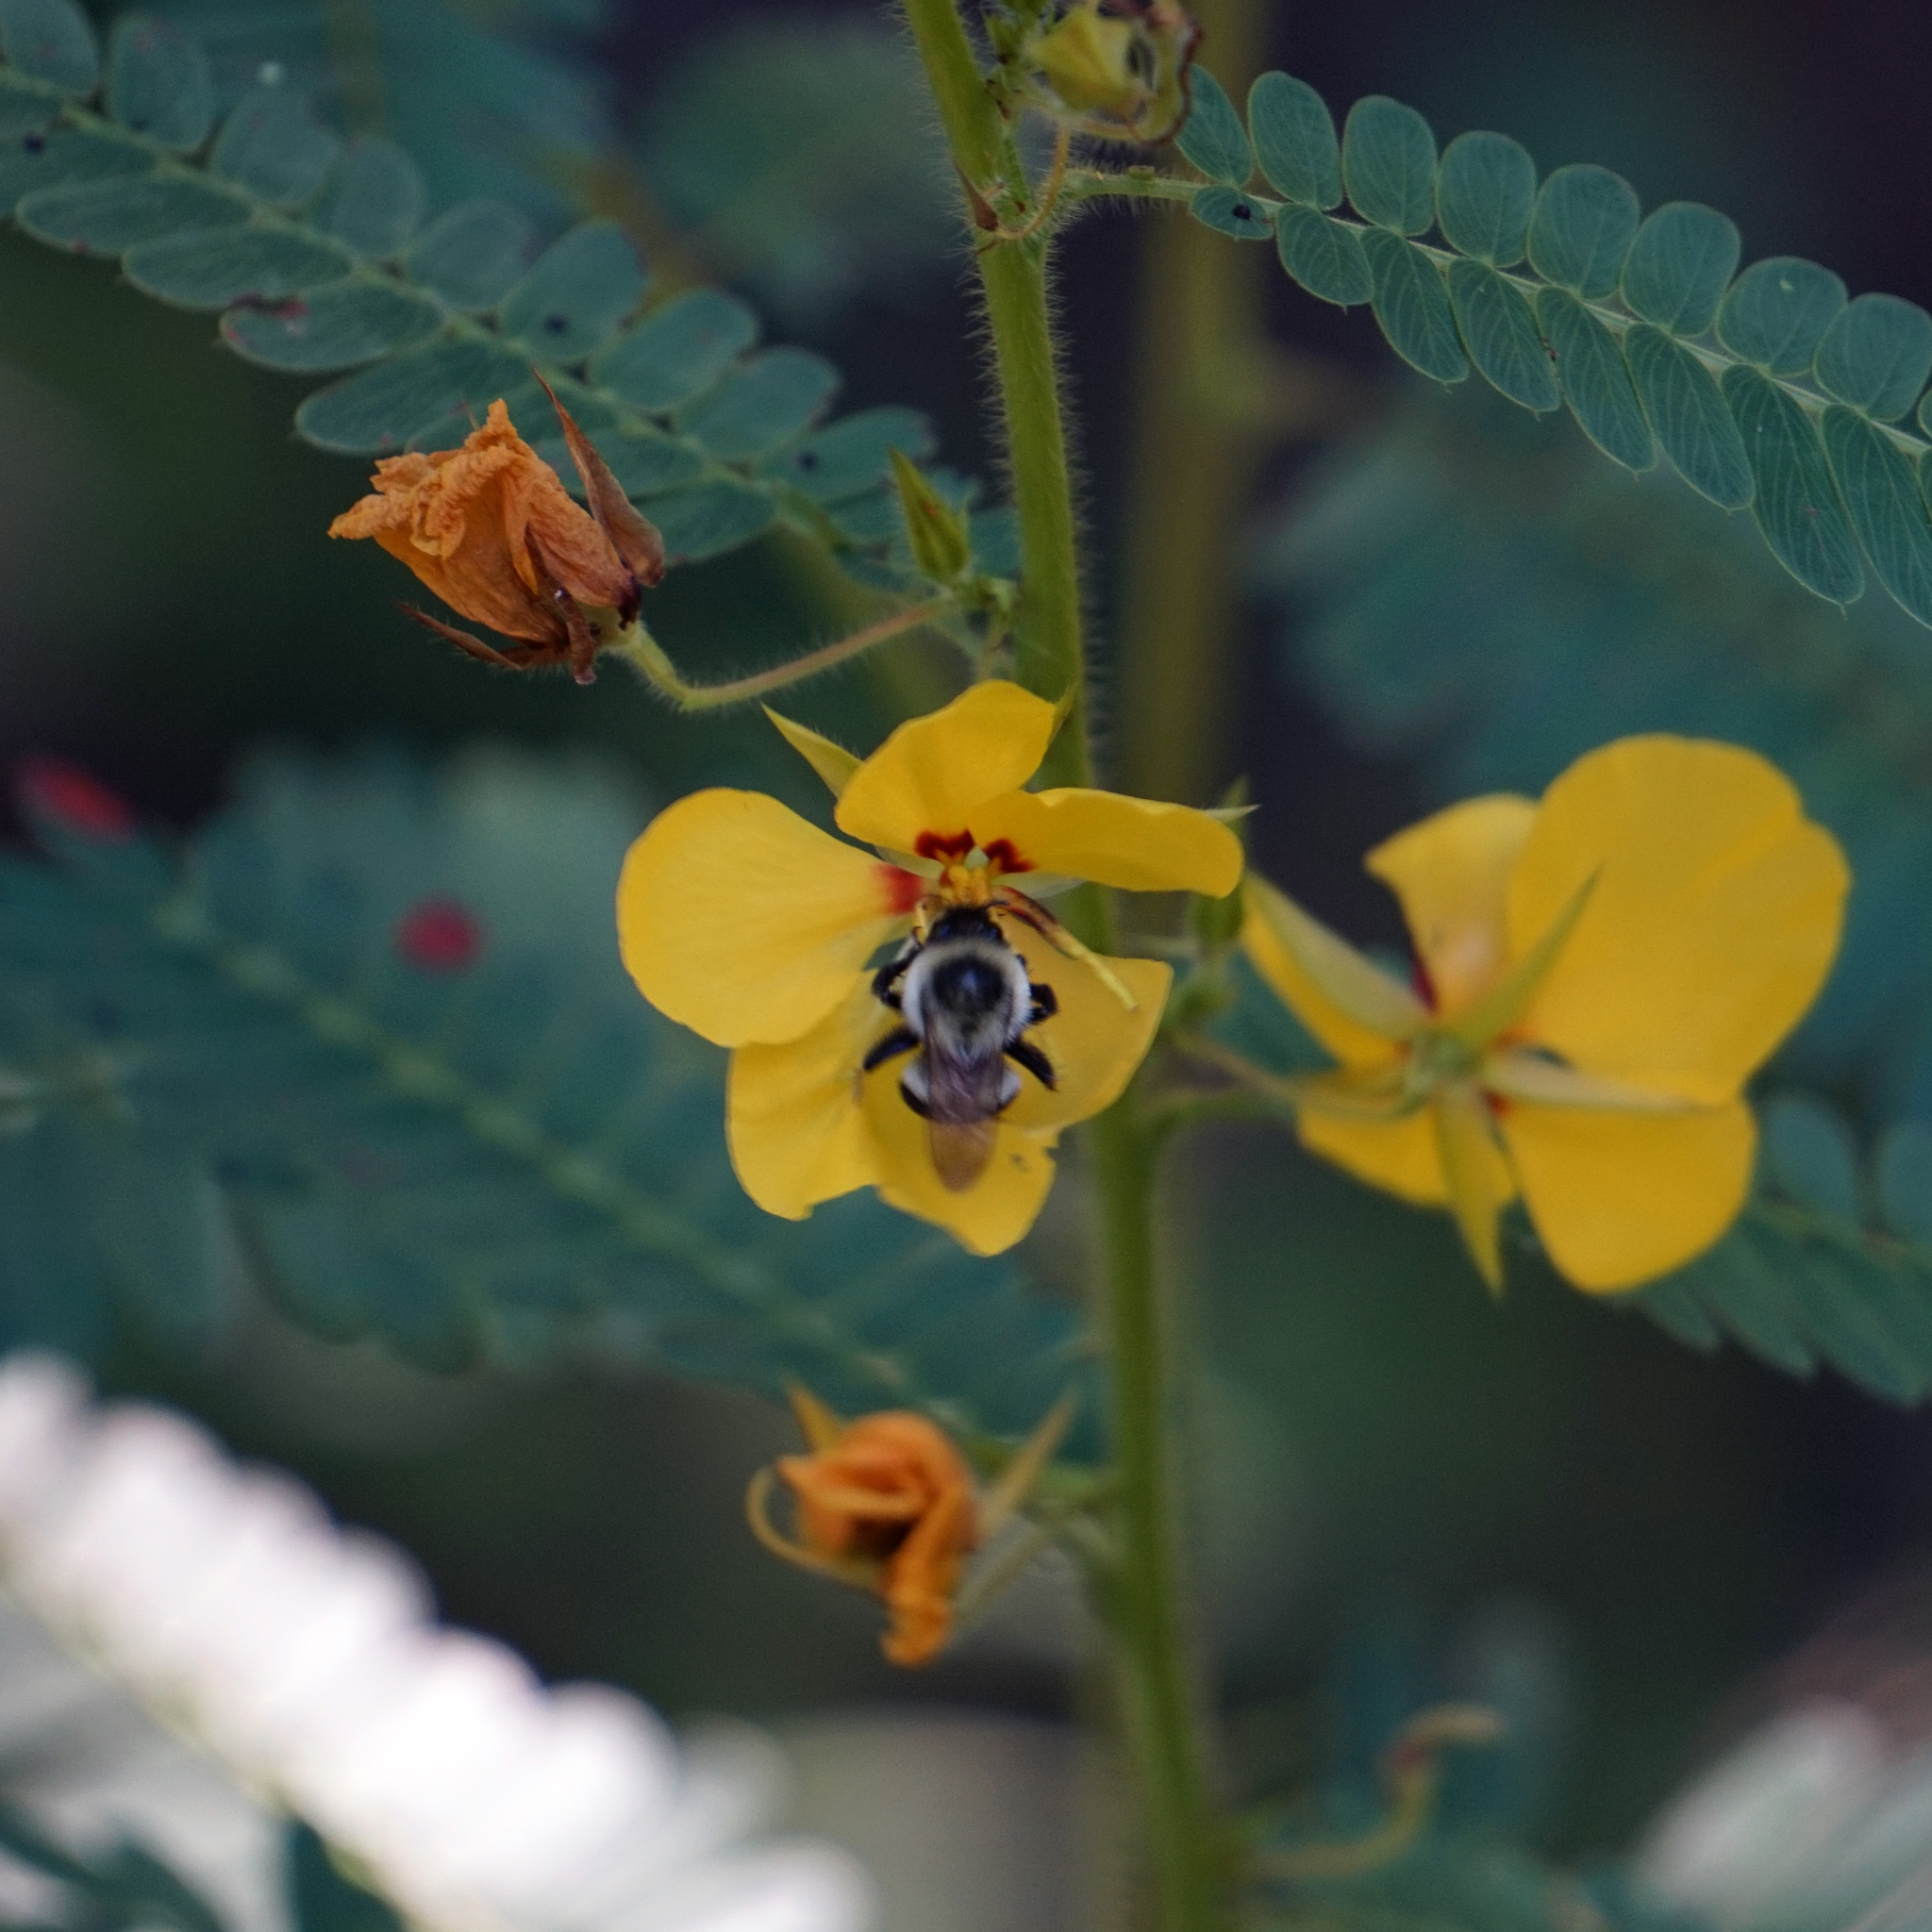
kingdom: Animalia
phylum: Arthropoda
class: Insecta
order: Hymenoptera
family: Apidae
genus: Bombus
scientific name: Bombus impatiens
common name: Common eastern bumble bee
